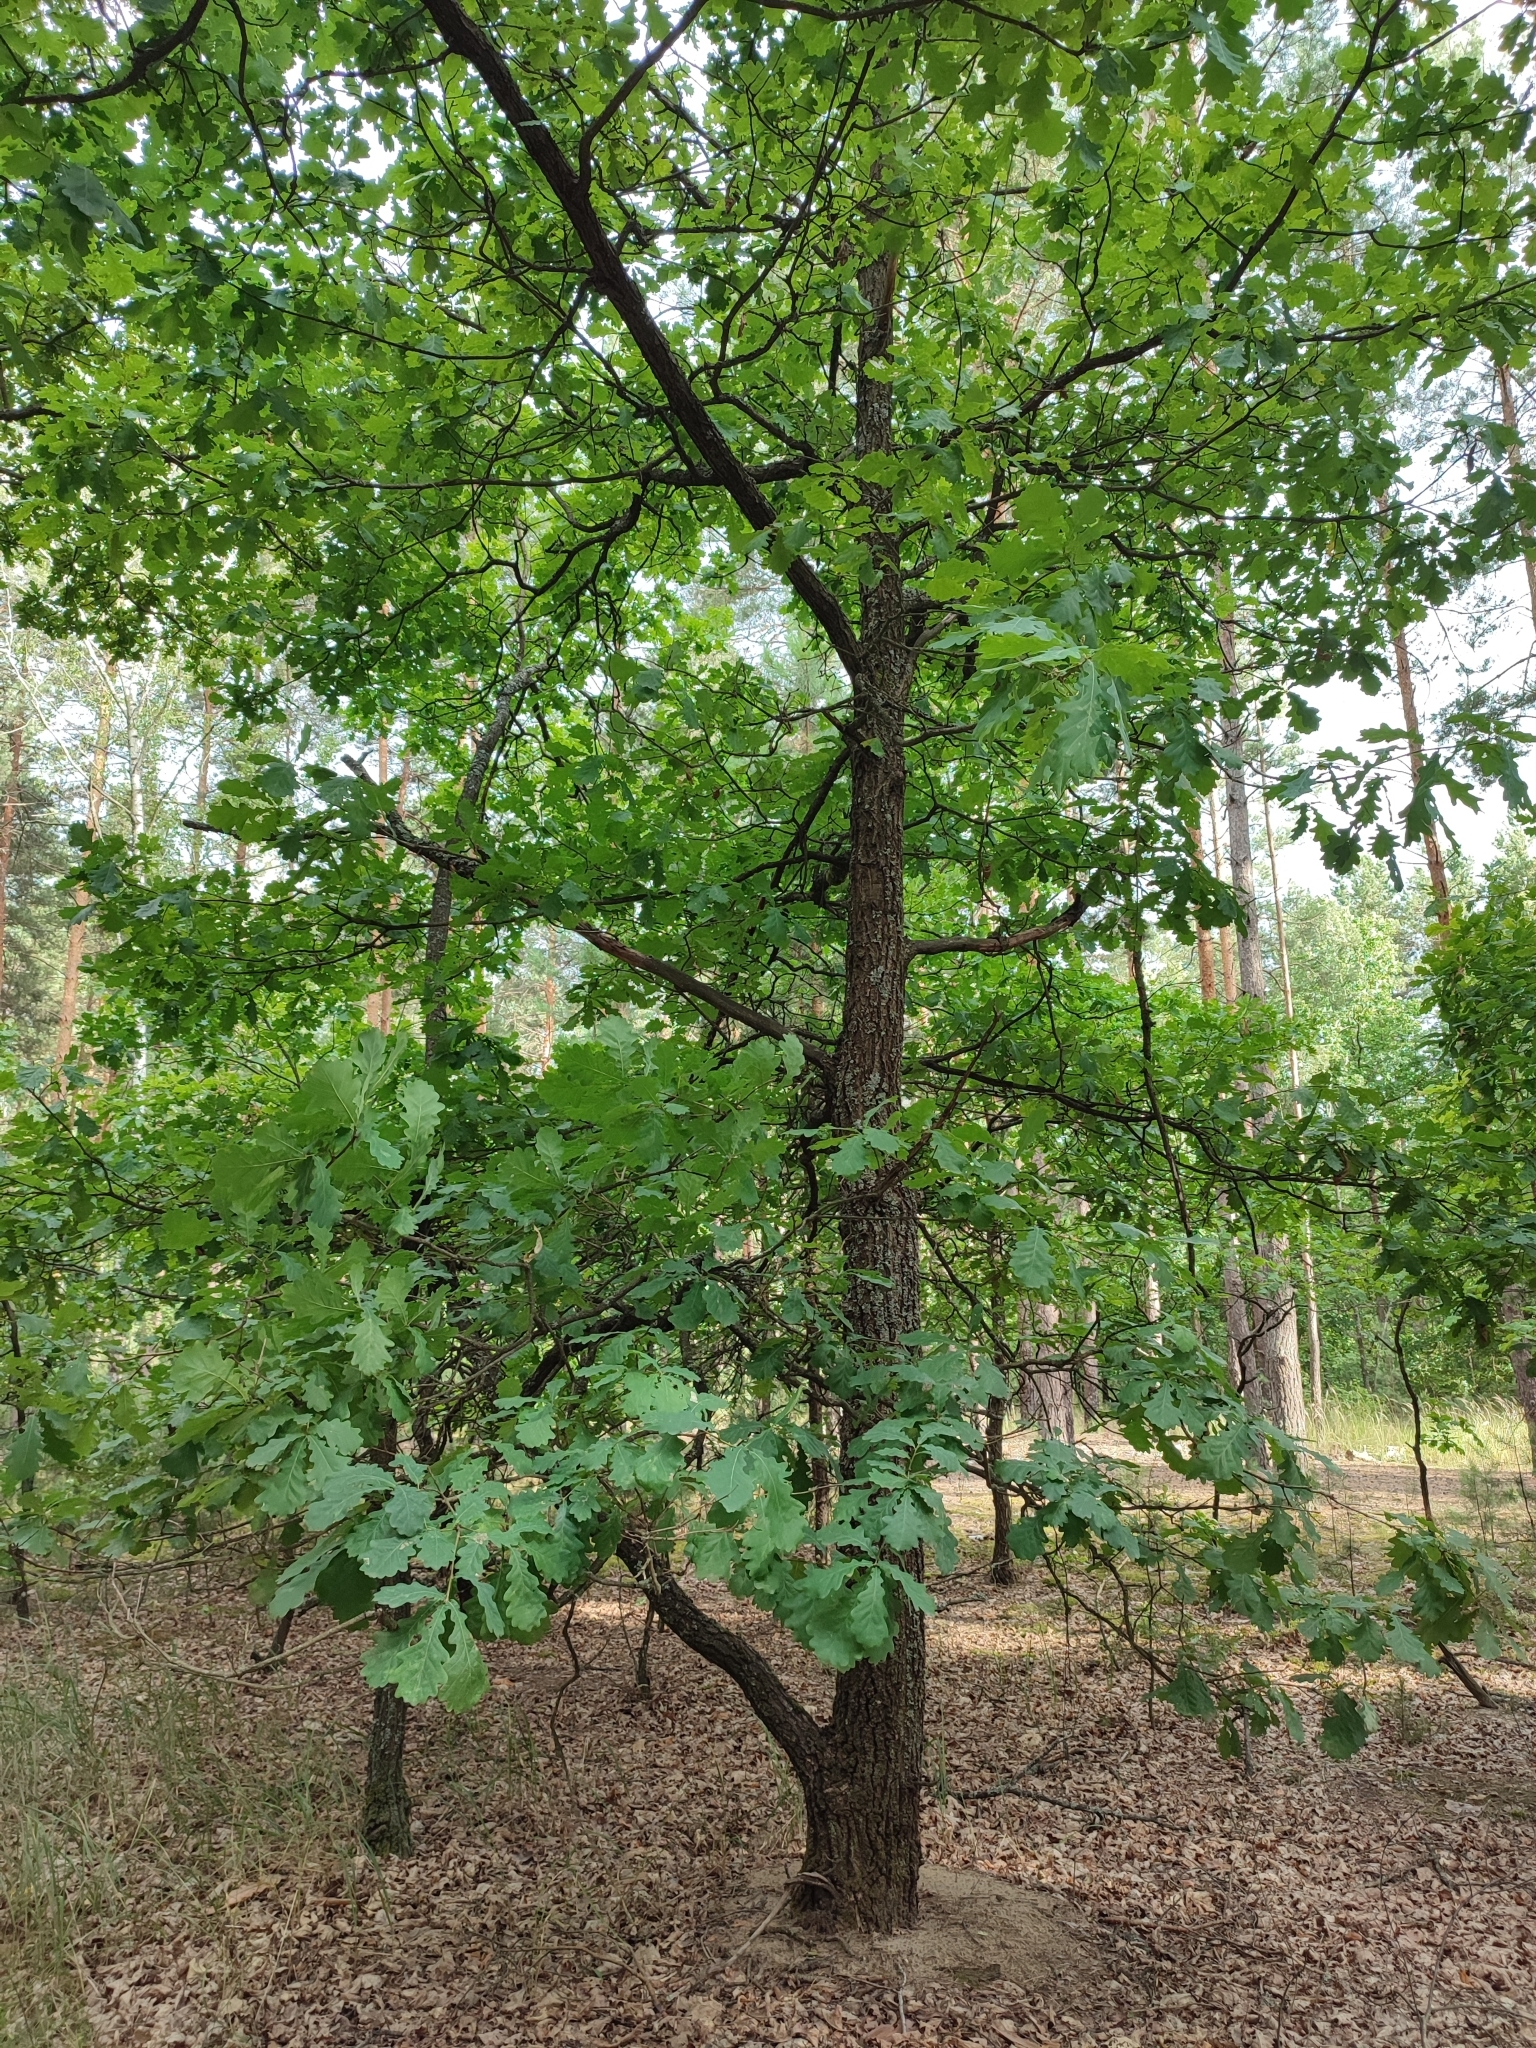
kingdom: Plantae
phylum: Tracheophyta
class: Magnoliopsida
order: Fagales
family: Fagaceae
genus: Quercus
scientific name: Quercus robur
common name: Pedunculate oak
